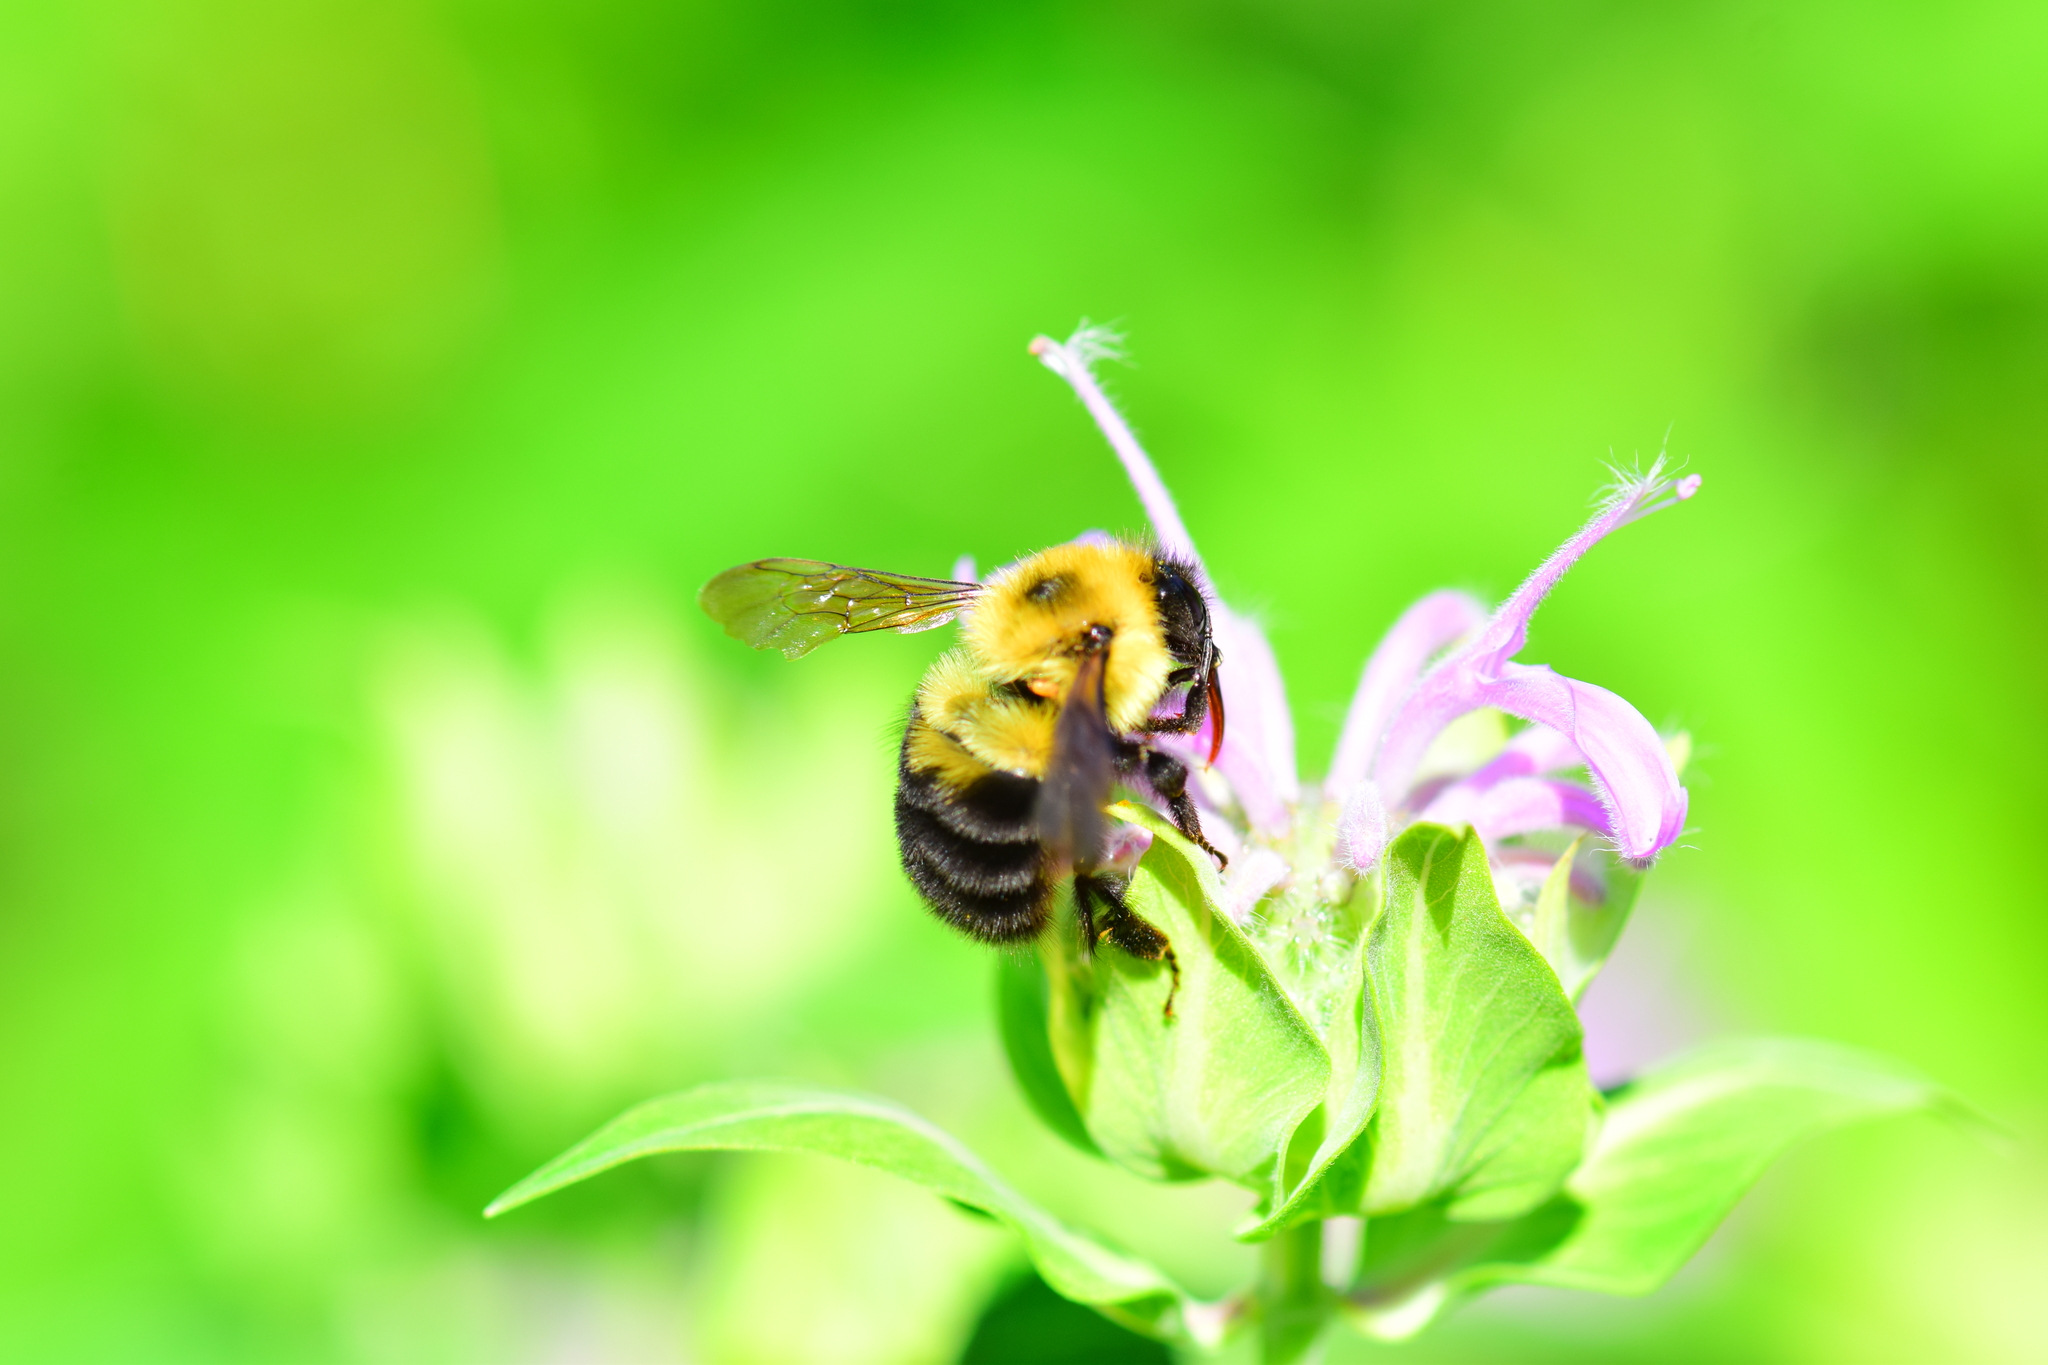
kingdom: Animalia
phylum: Arthropoda
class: Insecta
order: Hymenoptera
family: Apidae
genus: Bombus
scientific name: Bombus bimaculatus
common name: Two-spotted bumble bee
